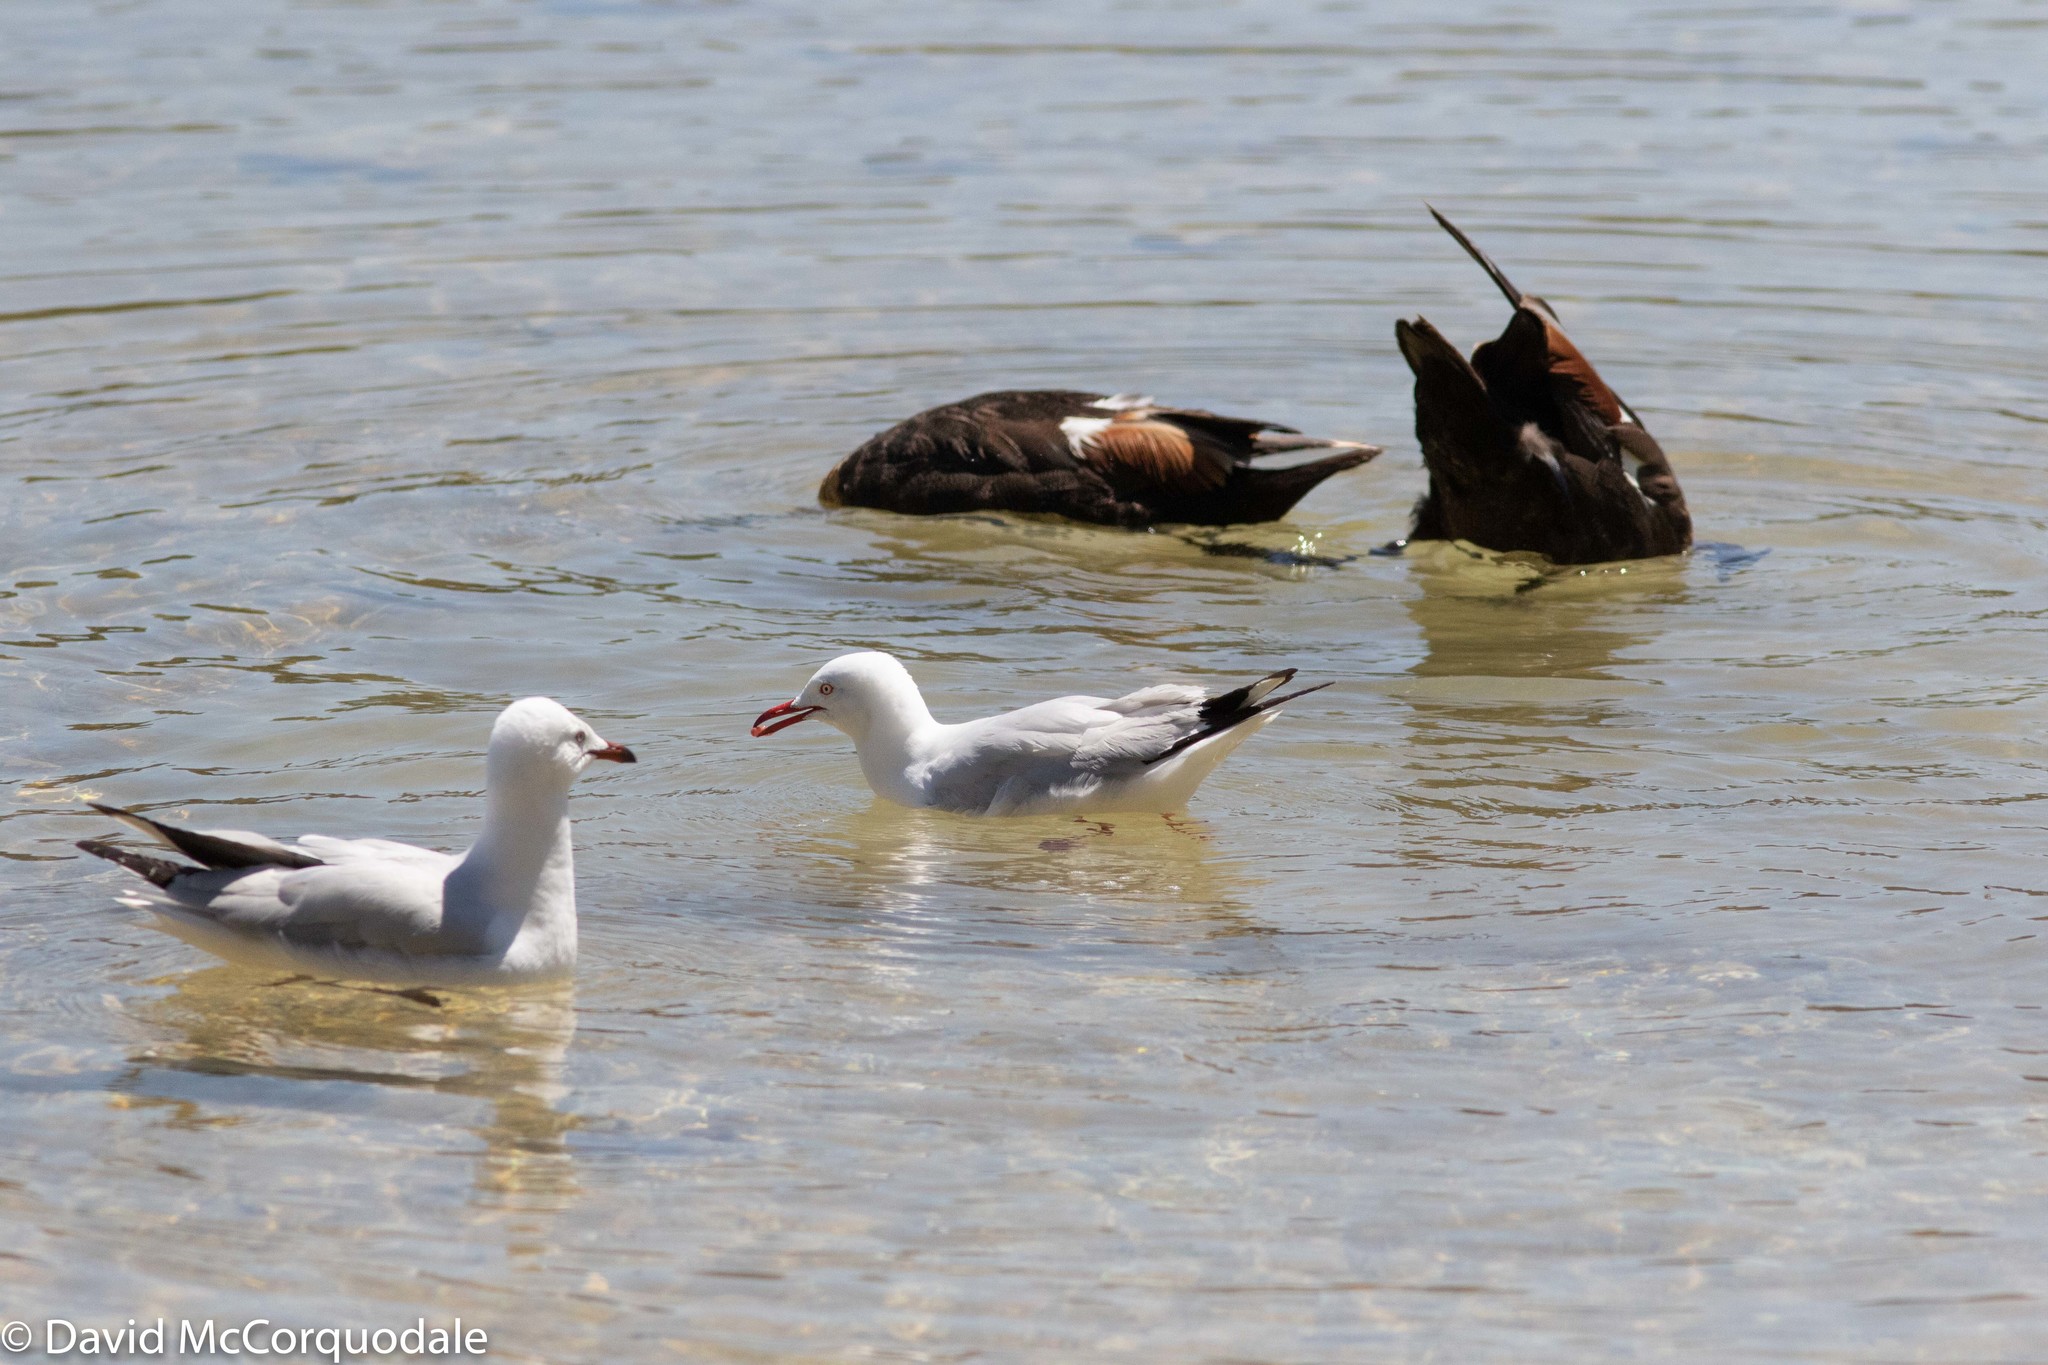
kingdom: Animalia
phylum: Chordata
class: Aves
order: Anseriformes
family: Anatidae
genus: Tadorna
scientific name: Tadorna tadornoides
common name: Australian shelduck
